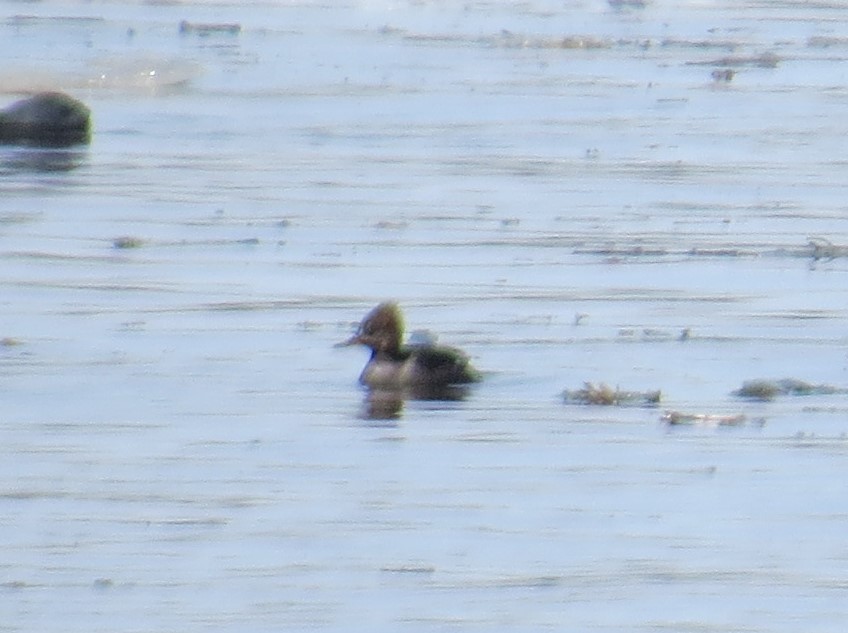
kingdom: Animalia
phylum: Chordata
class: Aves
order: Anseriformes
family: Anatidae
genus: Lophodytes
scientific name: Lophodytes cucullatus
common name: Hooded merganser
